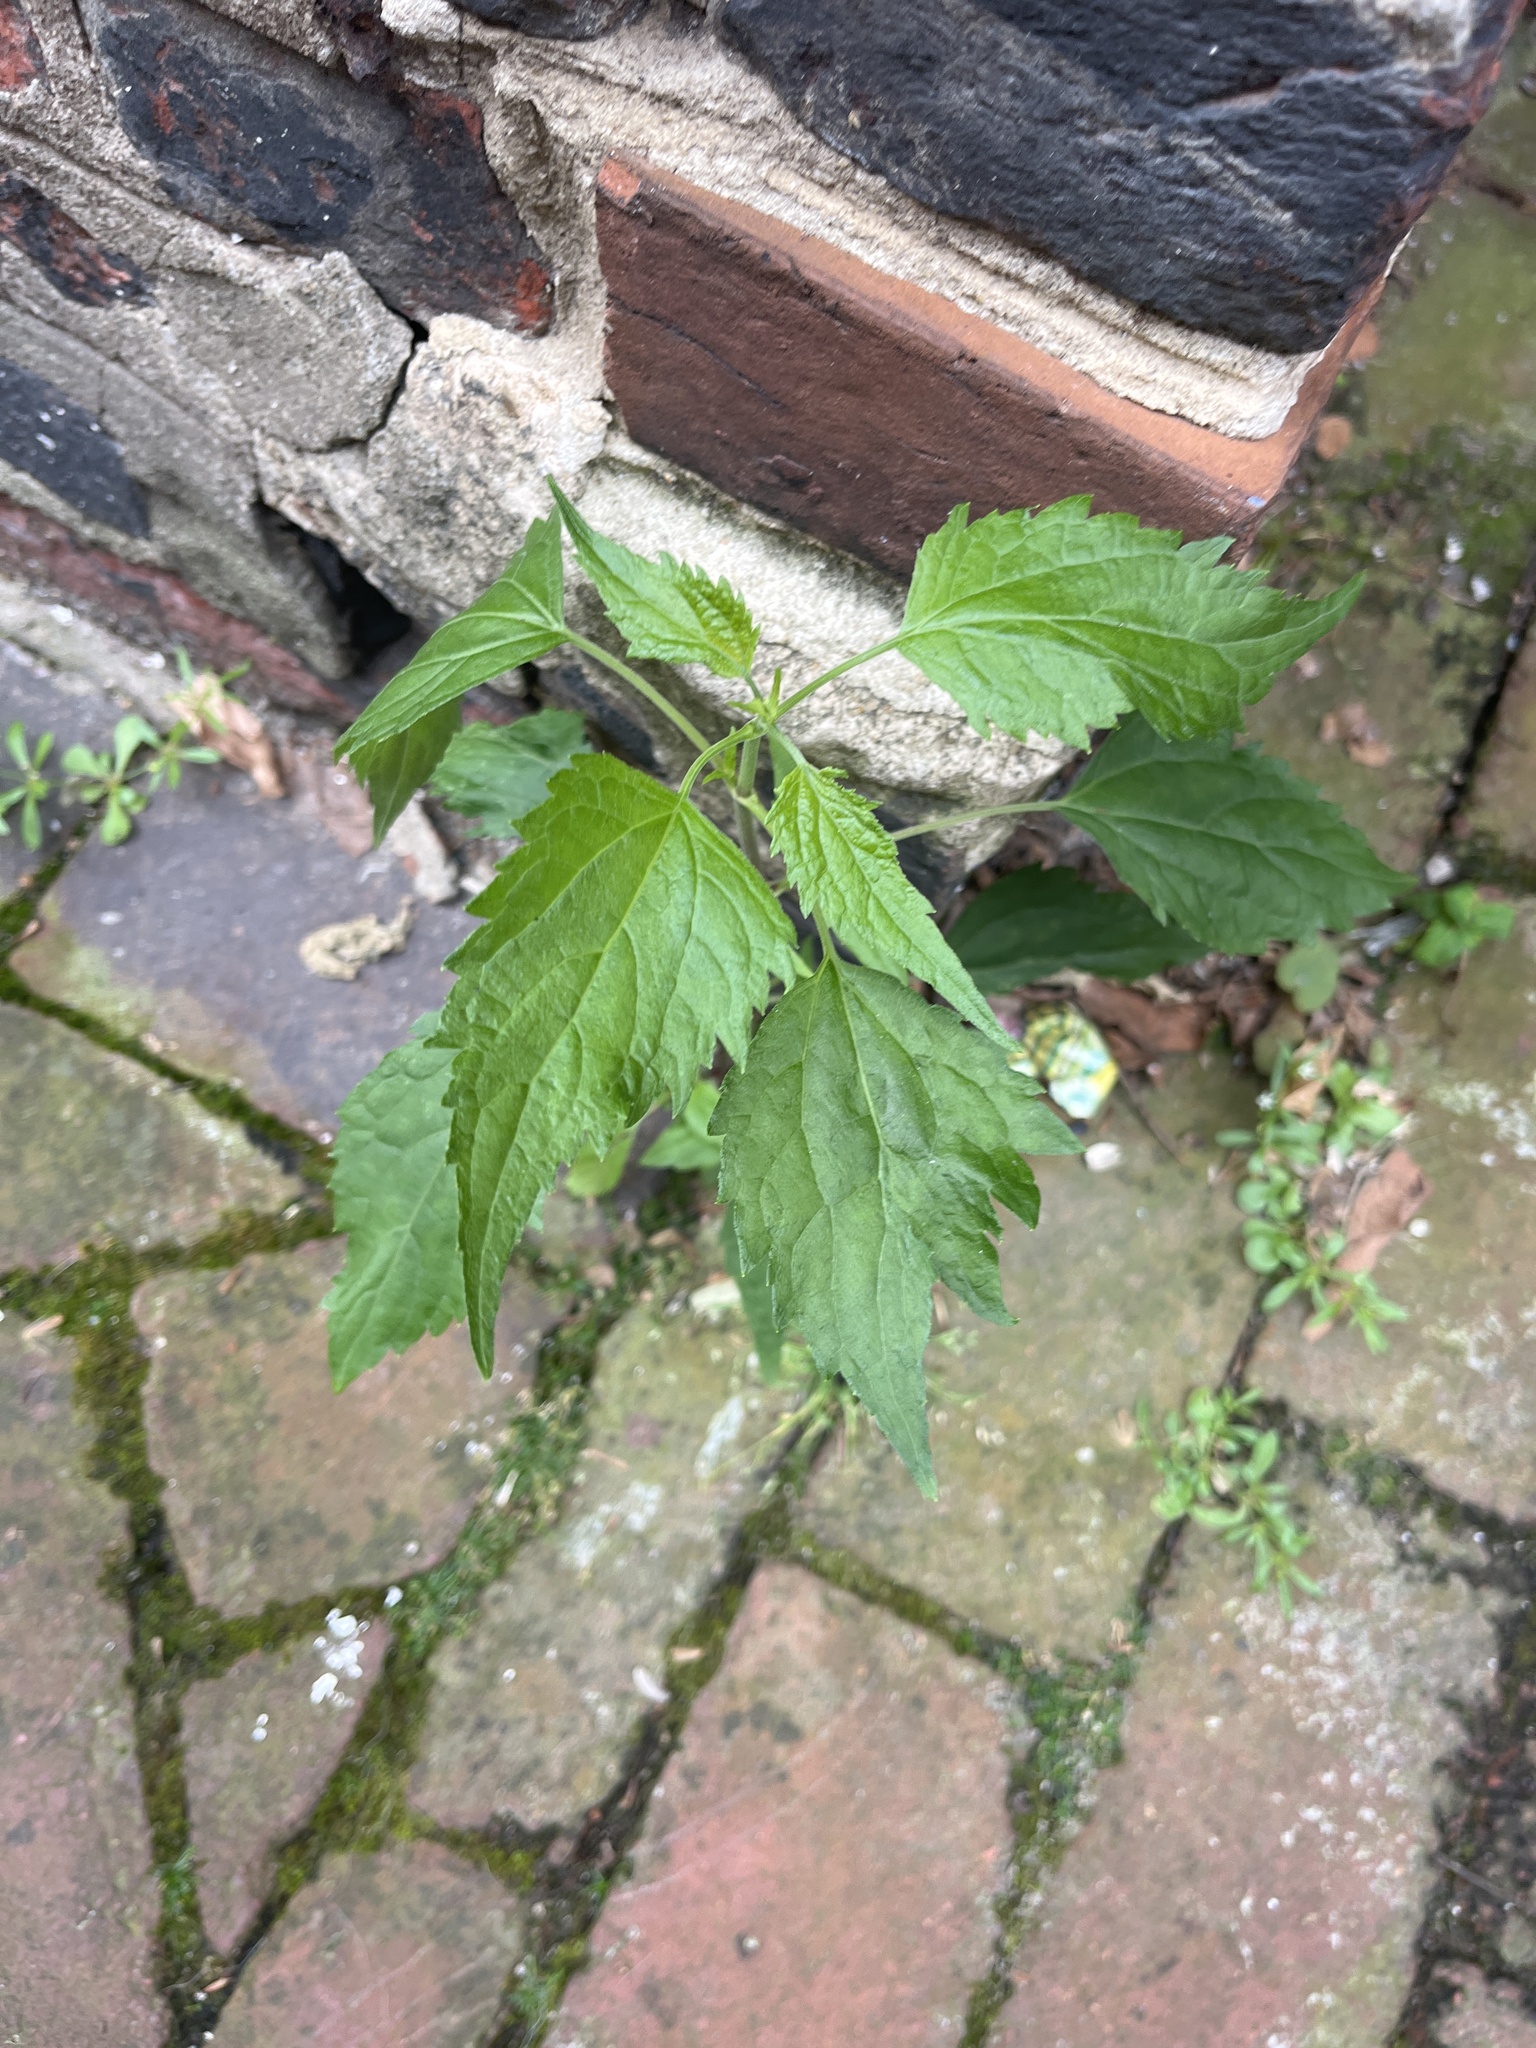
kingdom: Plantae
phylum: Tracheophyta
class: Magnoliopsida
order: Asterales
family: Asteraceae
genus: Ageratina
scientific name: Ageratina altissima
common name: White snakeroot
